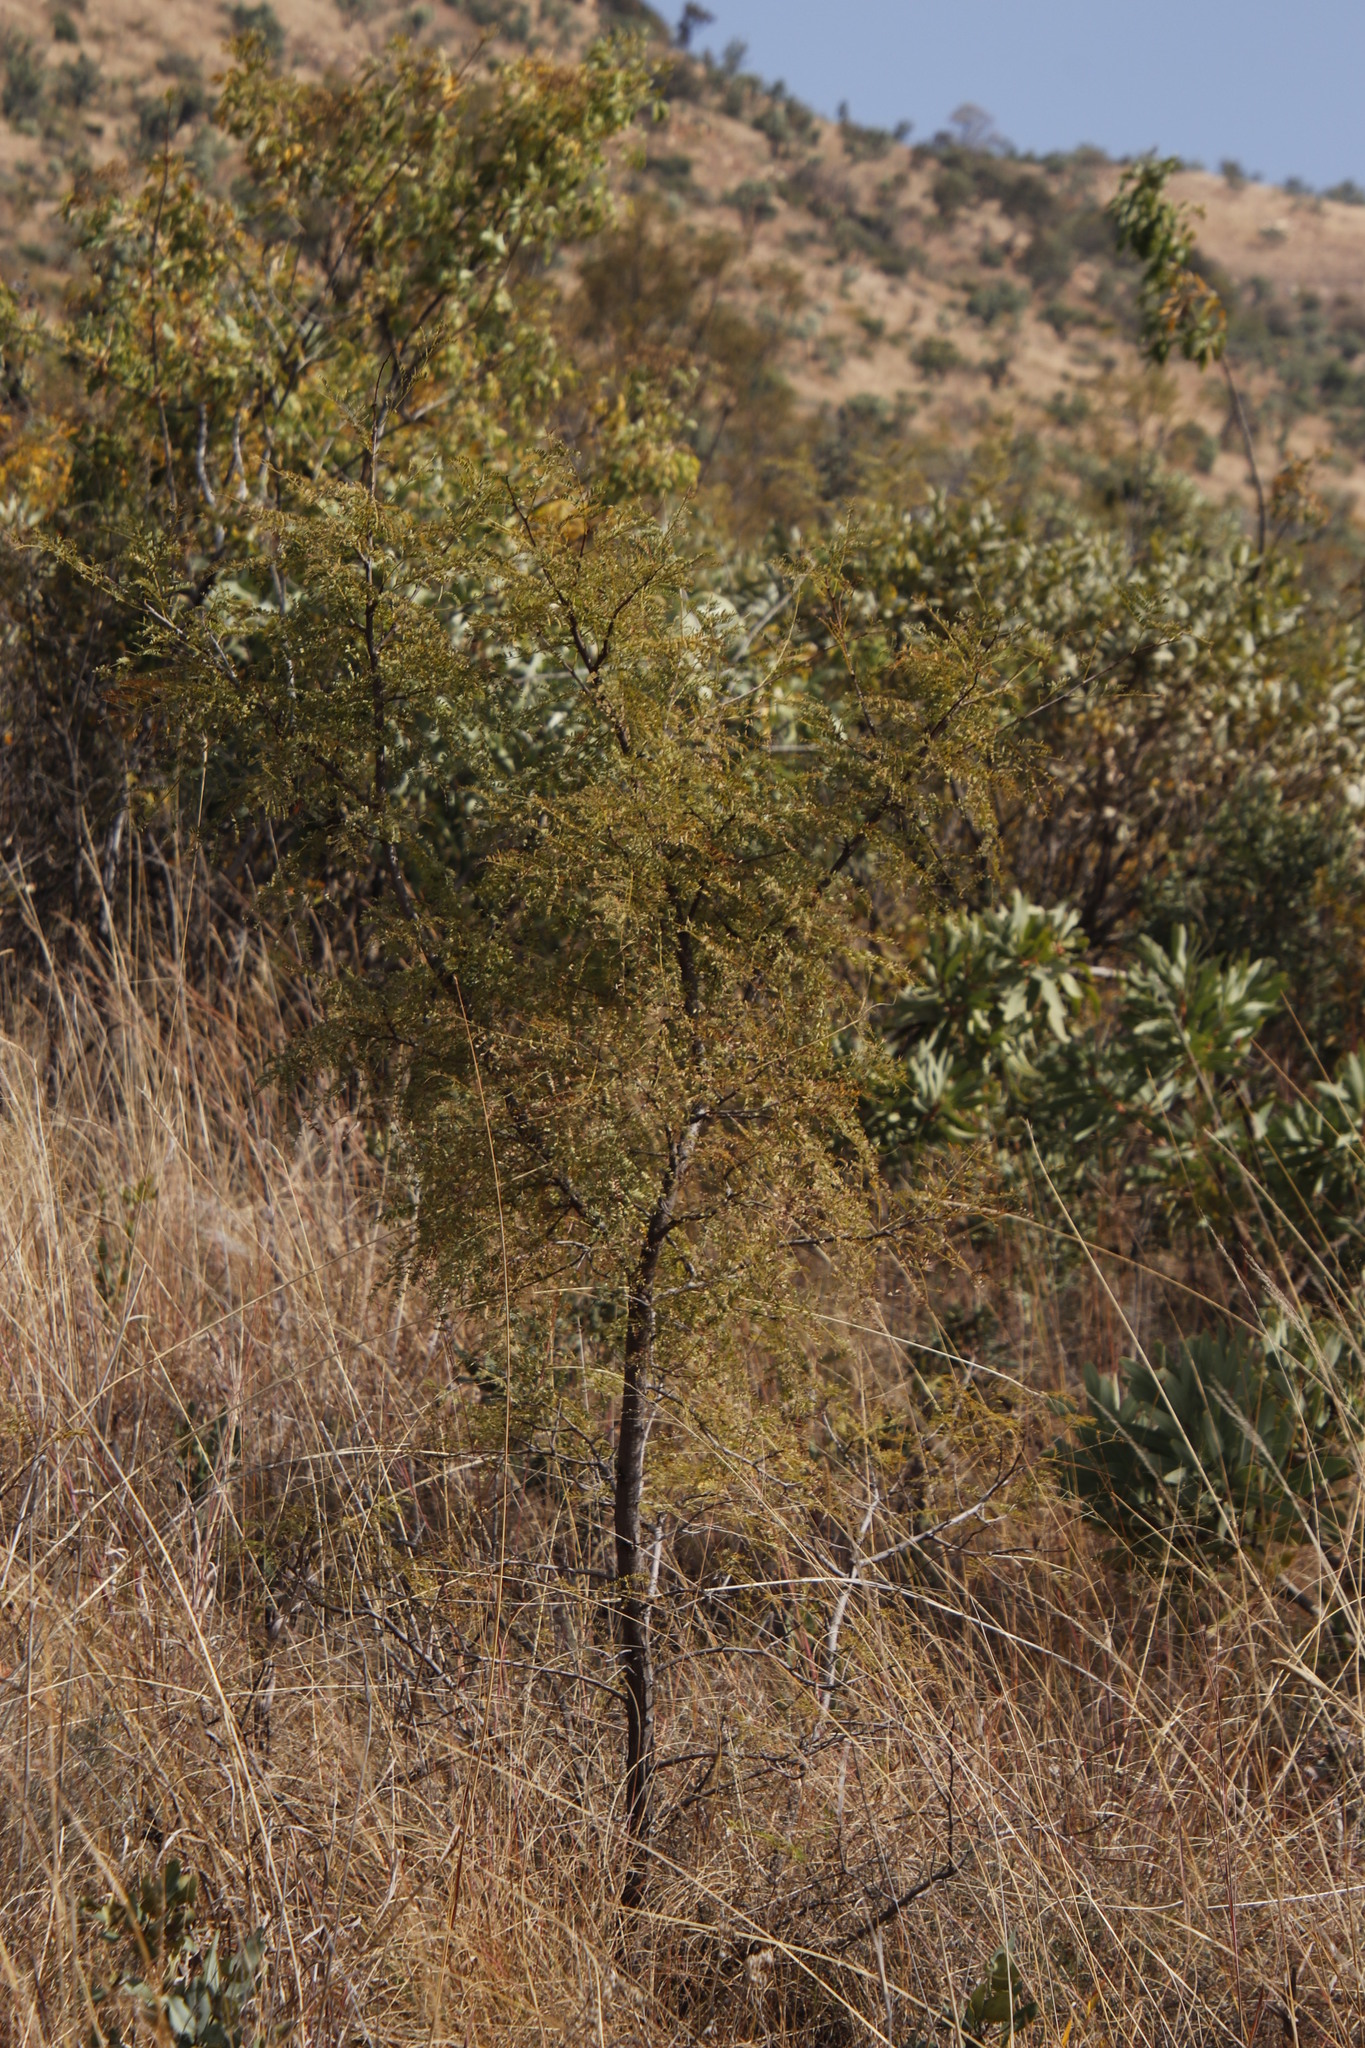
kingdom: Plantae
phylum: Tracheophyta
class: Magnoliopsida
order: Fabales
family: Fabaceae
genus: Senegalia
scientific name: Senegalia caffra
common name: Cat thorn
